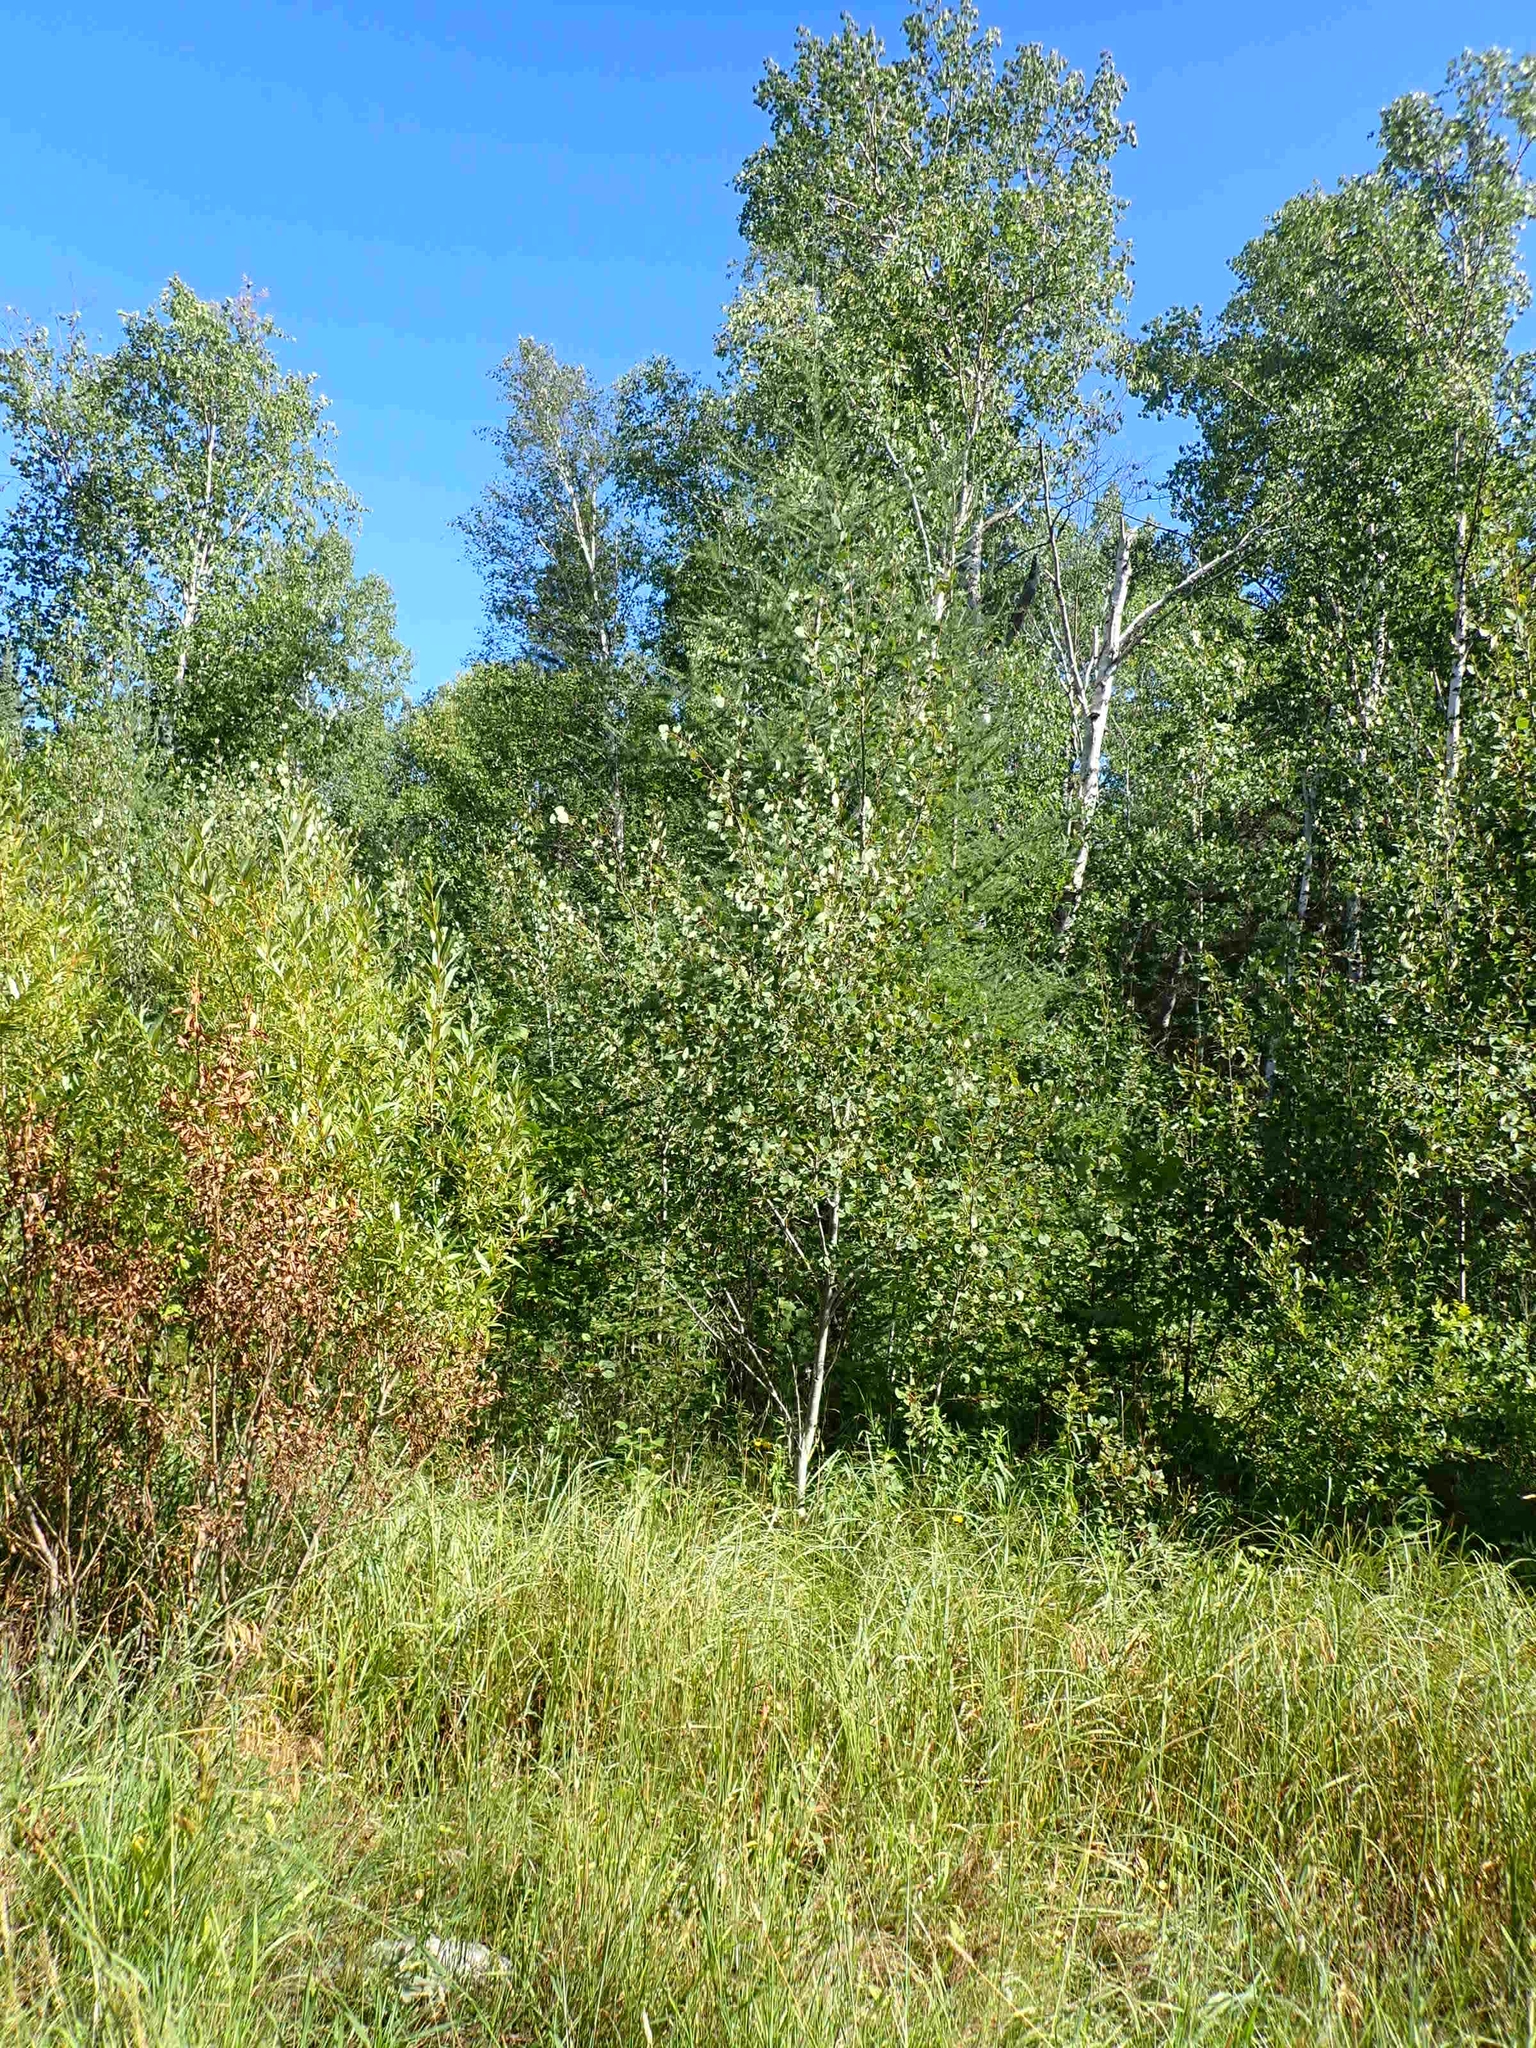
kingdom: Plantae
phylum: Tracheophyta
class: Magnoliopsida
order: Malpighiales
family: Salicaceae
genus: Populus
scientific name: Populus tremuloides
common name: Quaking aspen
